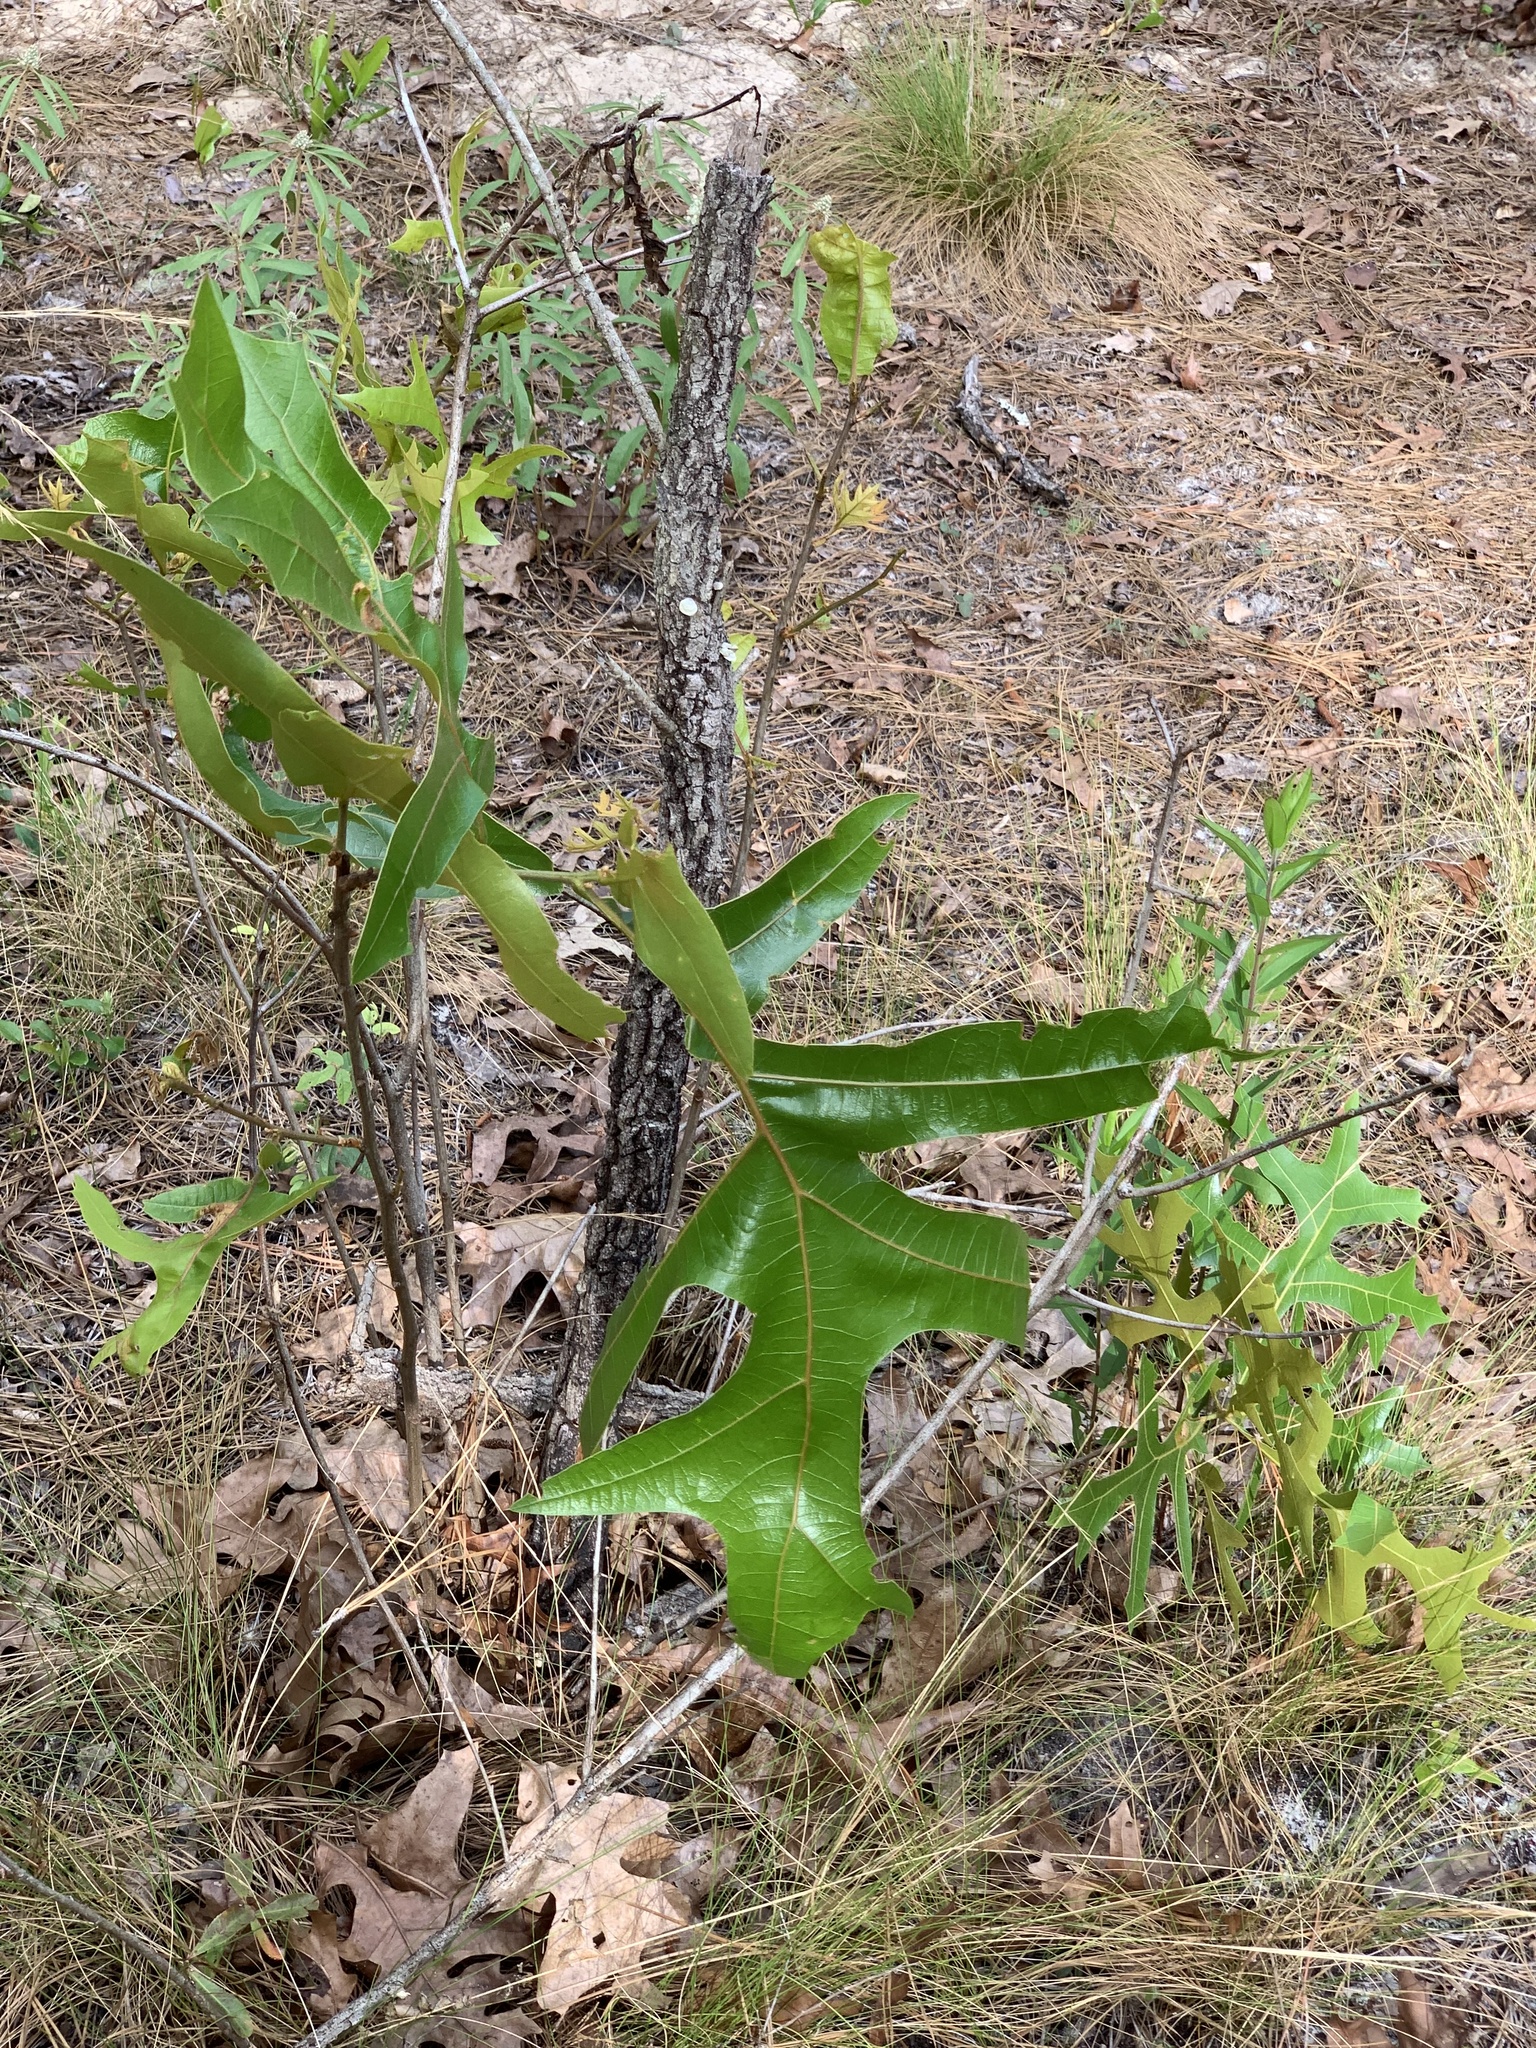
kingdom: Plantae
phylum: Tracheophyta
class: Magnoliopsida
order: Fagales
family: Fagaceae
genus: Quercus
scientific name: Quercus laevis
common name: Turkey oak
